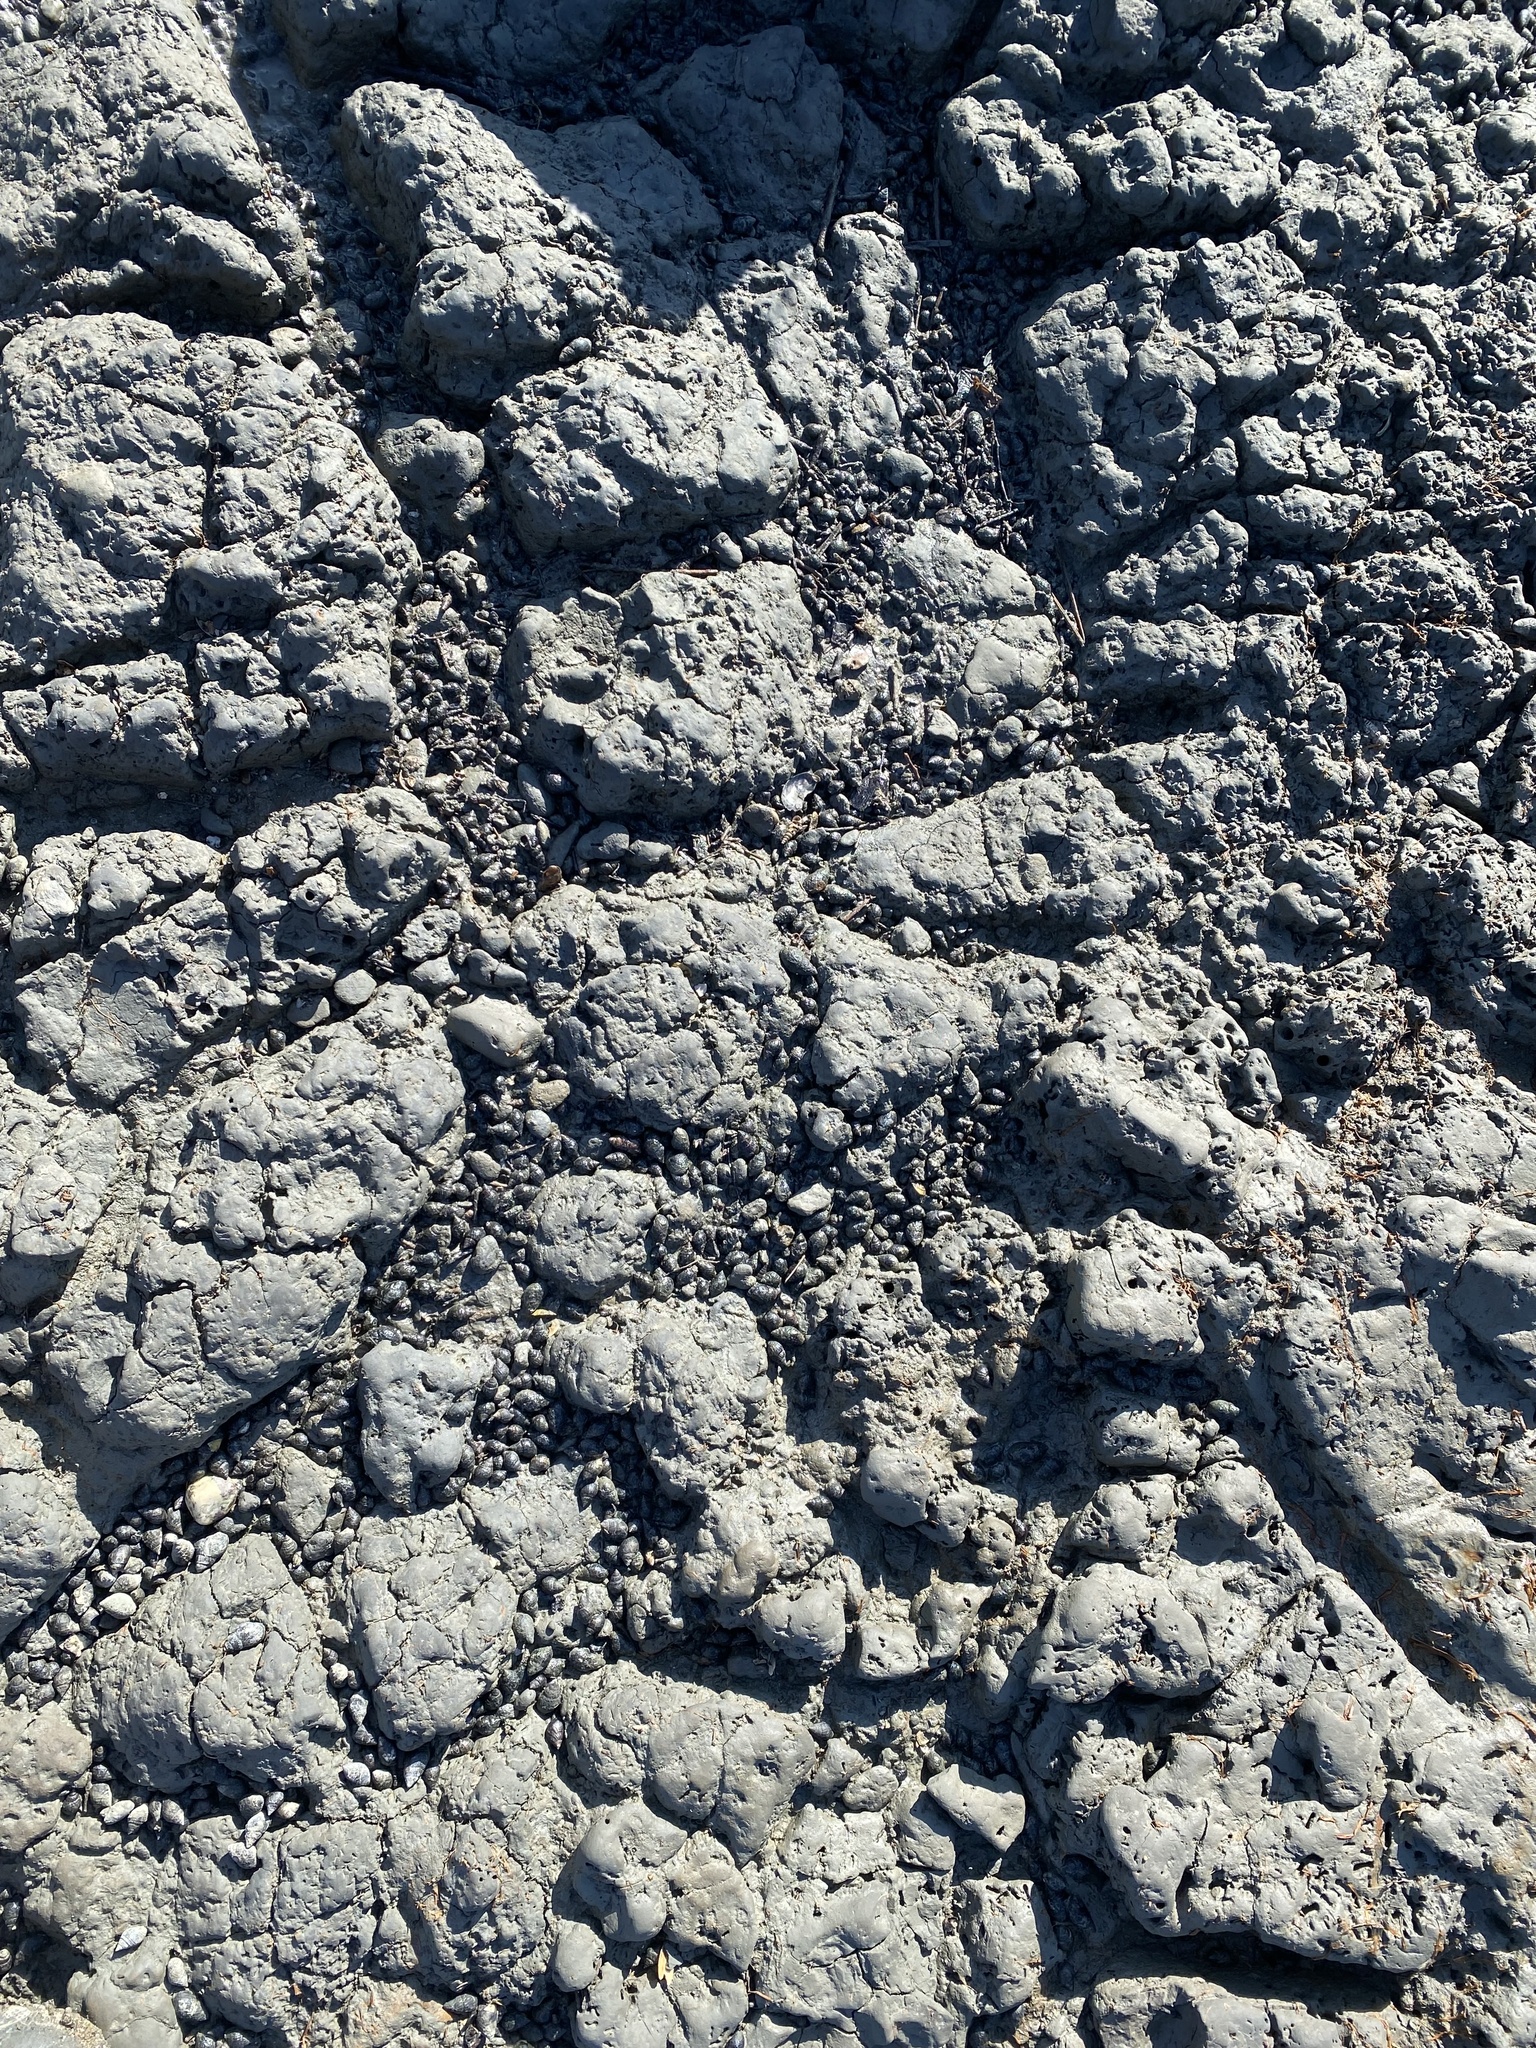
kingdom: Animalia
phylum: Mollusca
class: Gastropoda
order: Neogastropoda
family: Nassariidae
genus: Ilyanassa
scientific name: Ilyanassa obsoleta
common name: Eastern mudsnail
